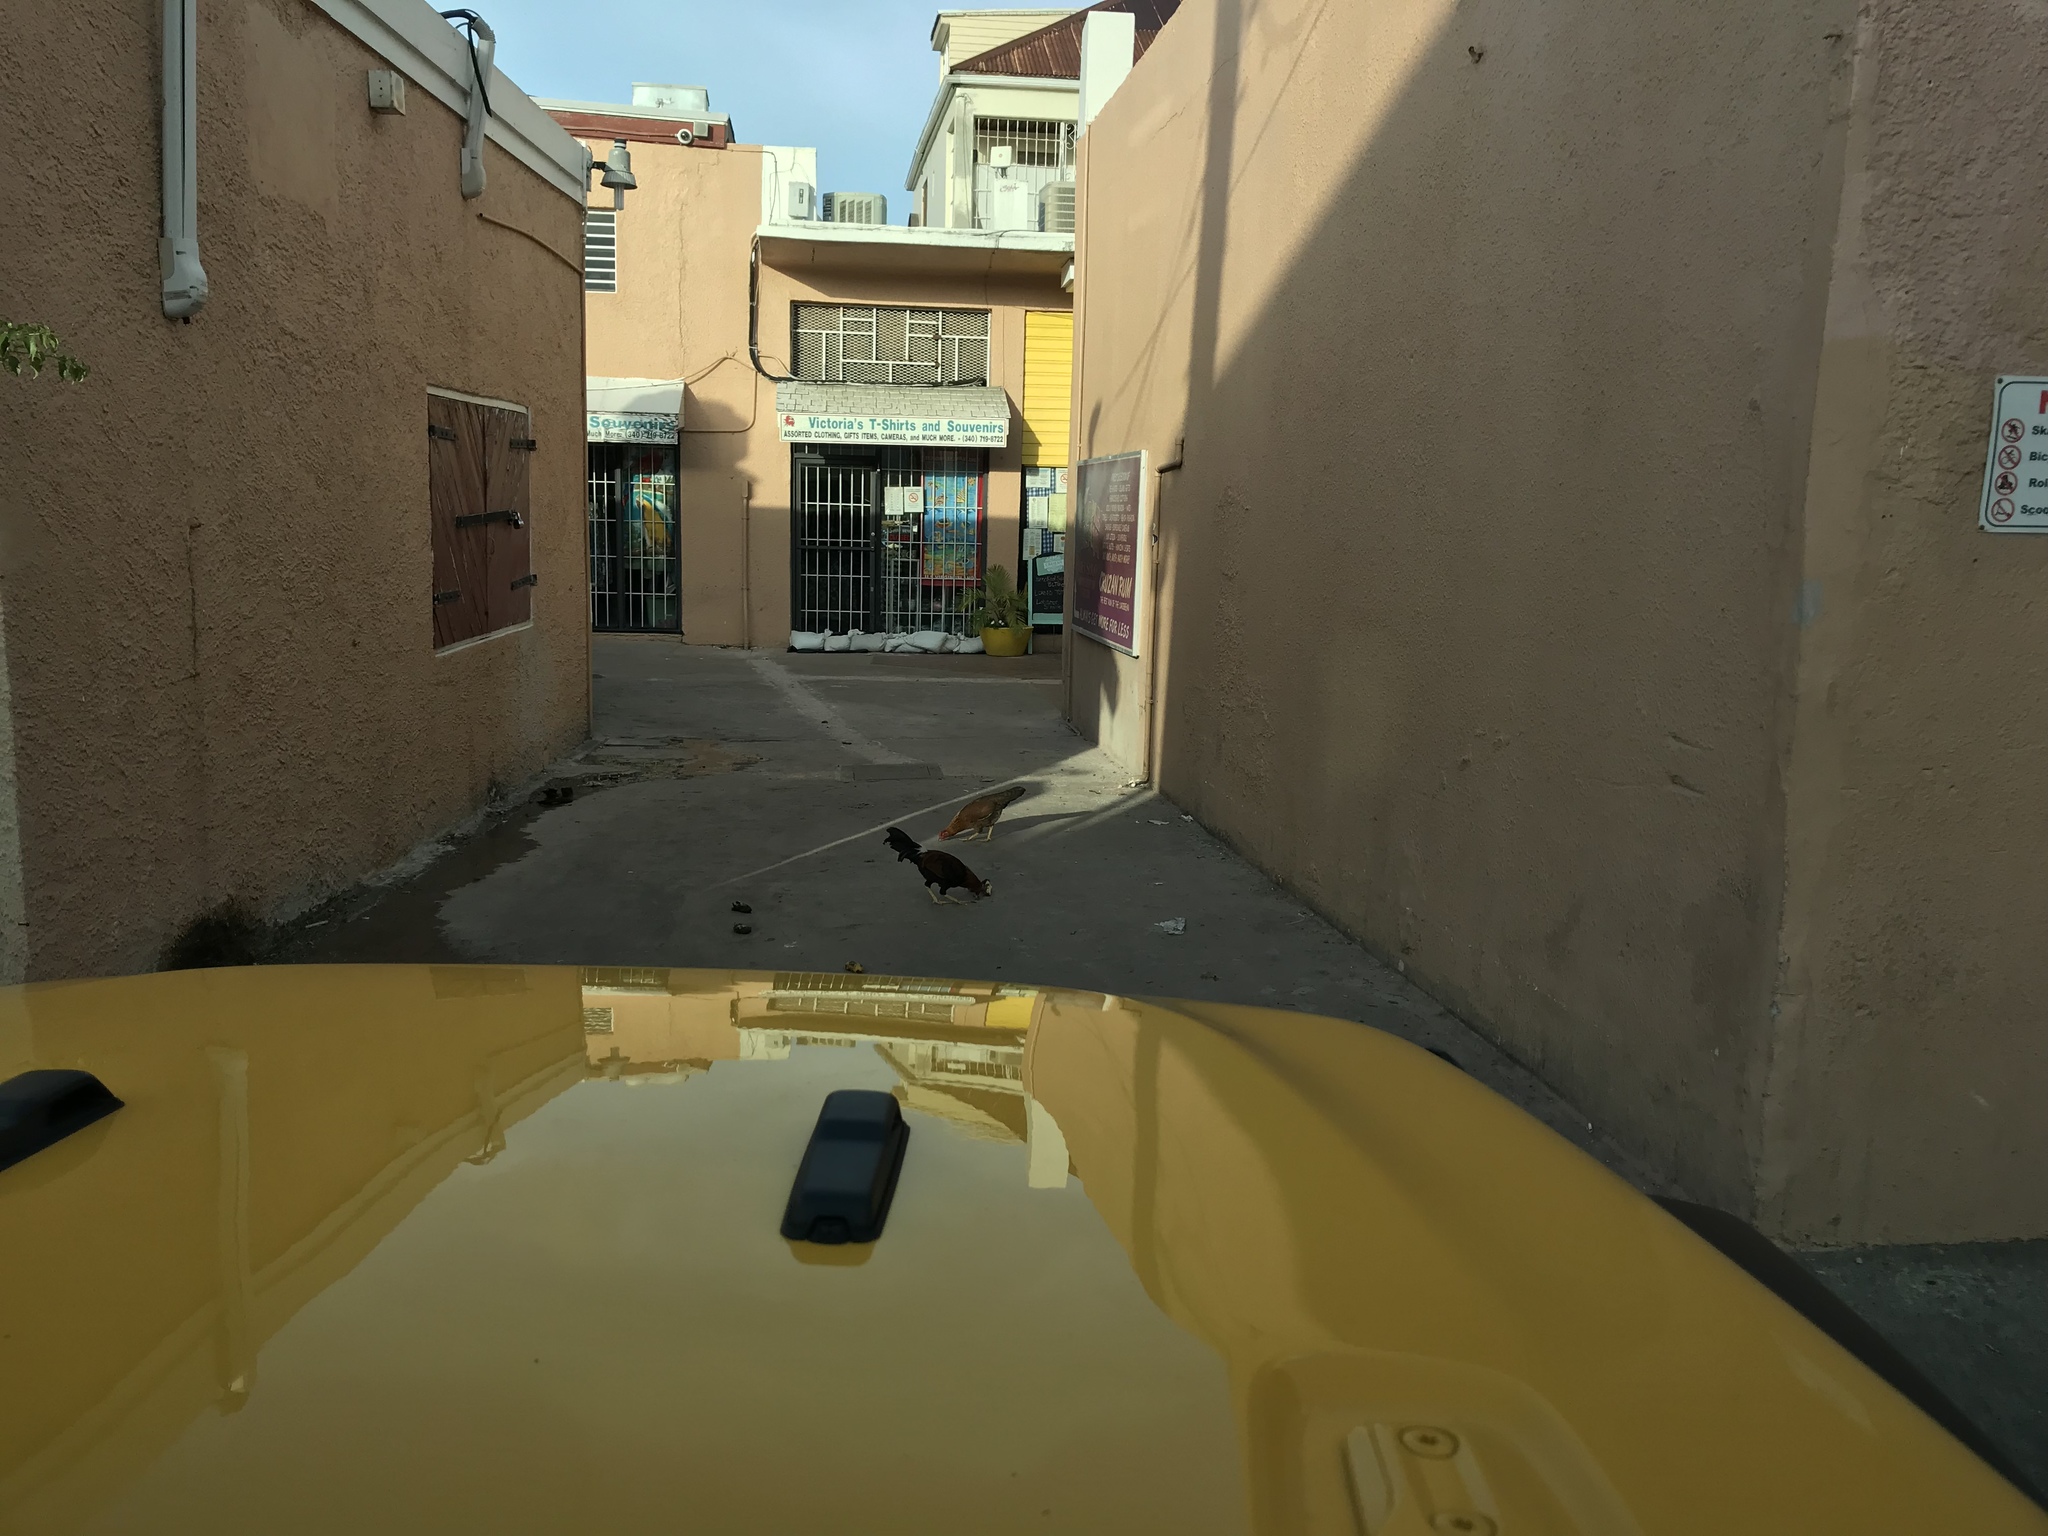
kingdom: Animalia
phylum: Chordata
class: Aves
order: Galliformes
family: Phasianidae
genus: Gallus
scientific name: Gallus gallus
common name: Red junglefowl
